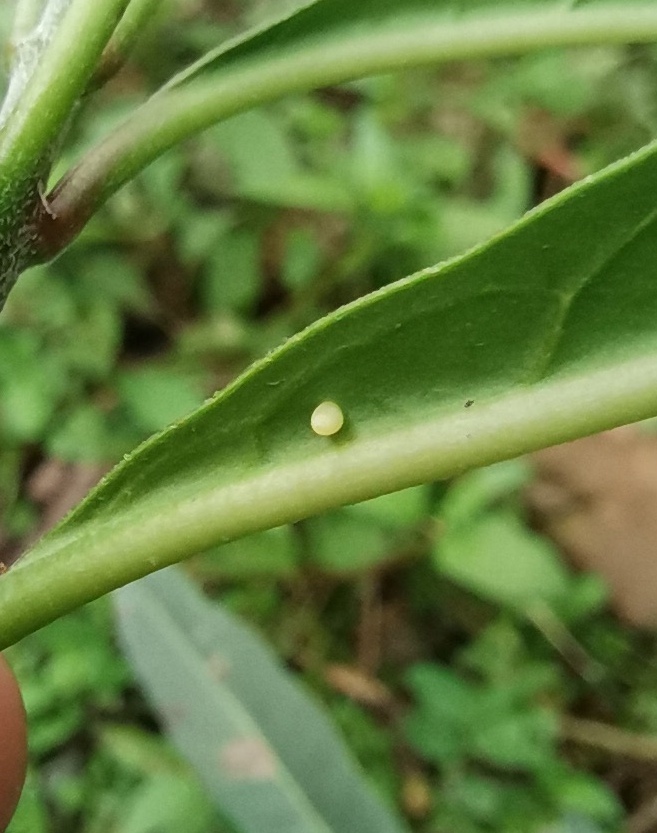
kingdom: Animalia
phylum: Arthropoda
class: Insecta
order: Lepidoptera
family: Nymphalidae
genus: Danaus
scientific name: Danaus plexippus
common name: Monarch
